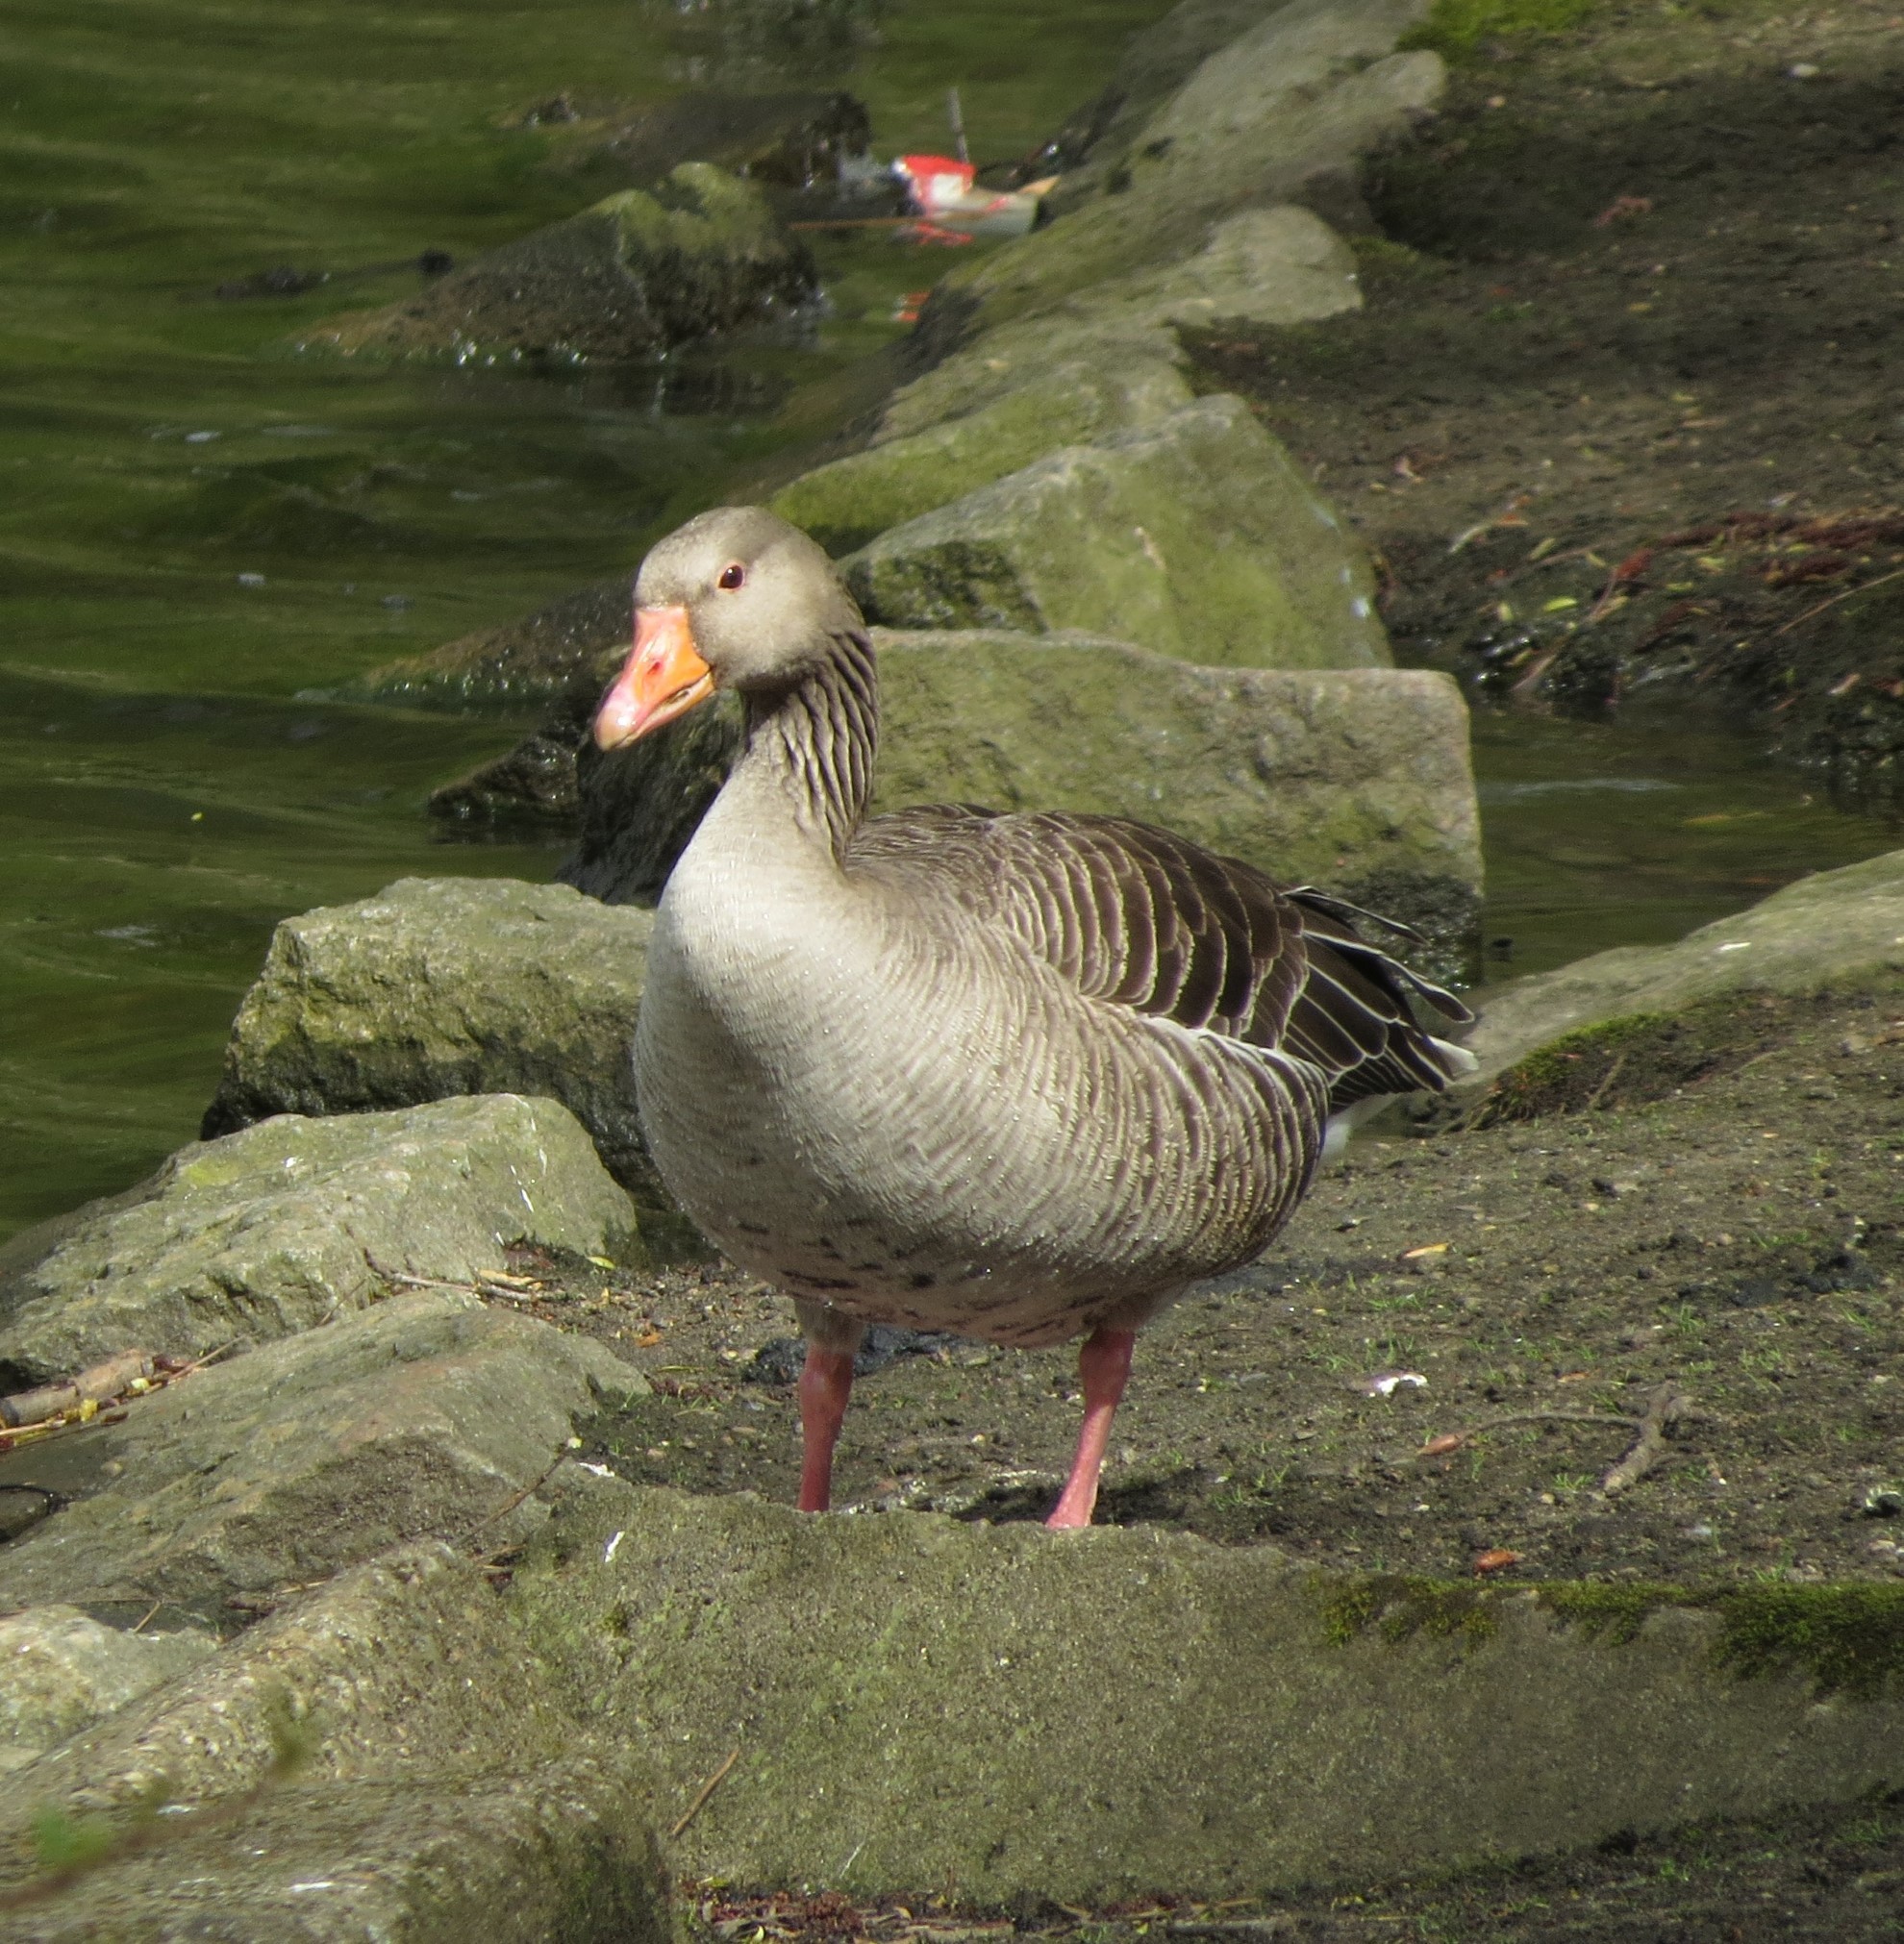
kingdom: Animalia
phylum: Chordata
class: Aves
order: Anseriformes
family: Anatidae
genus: Anser
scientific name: Anser anser
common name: Greylag goose
